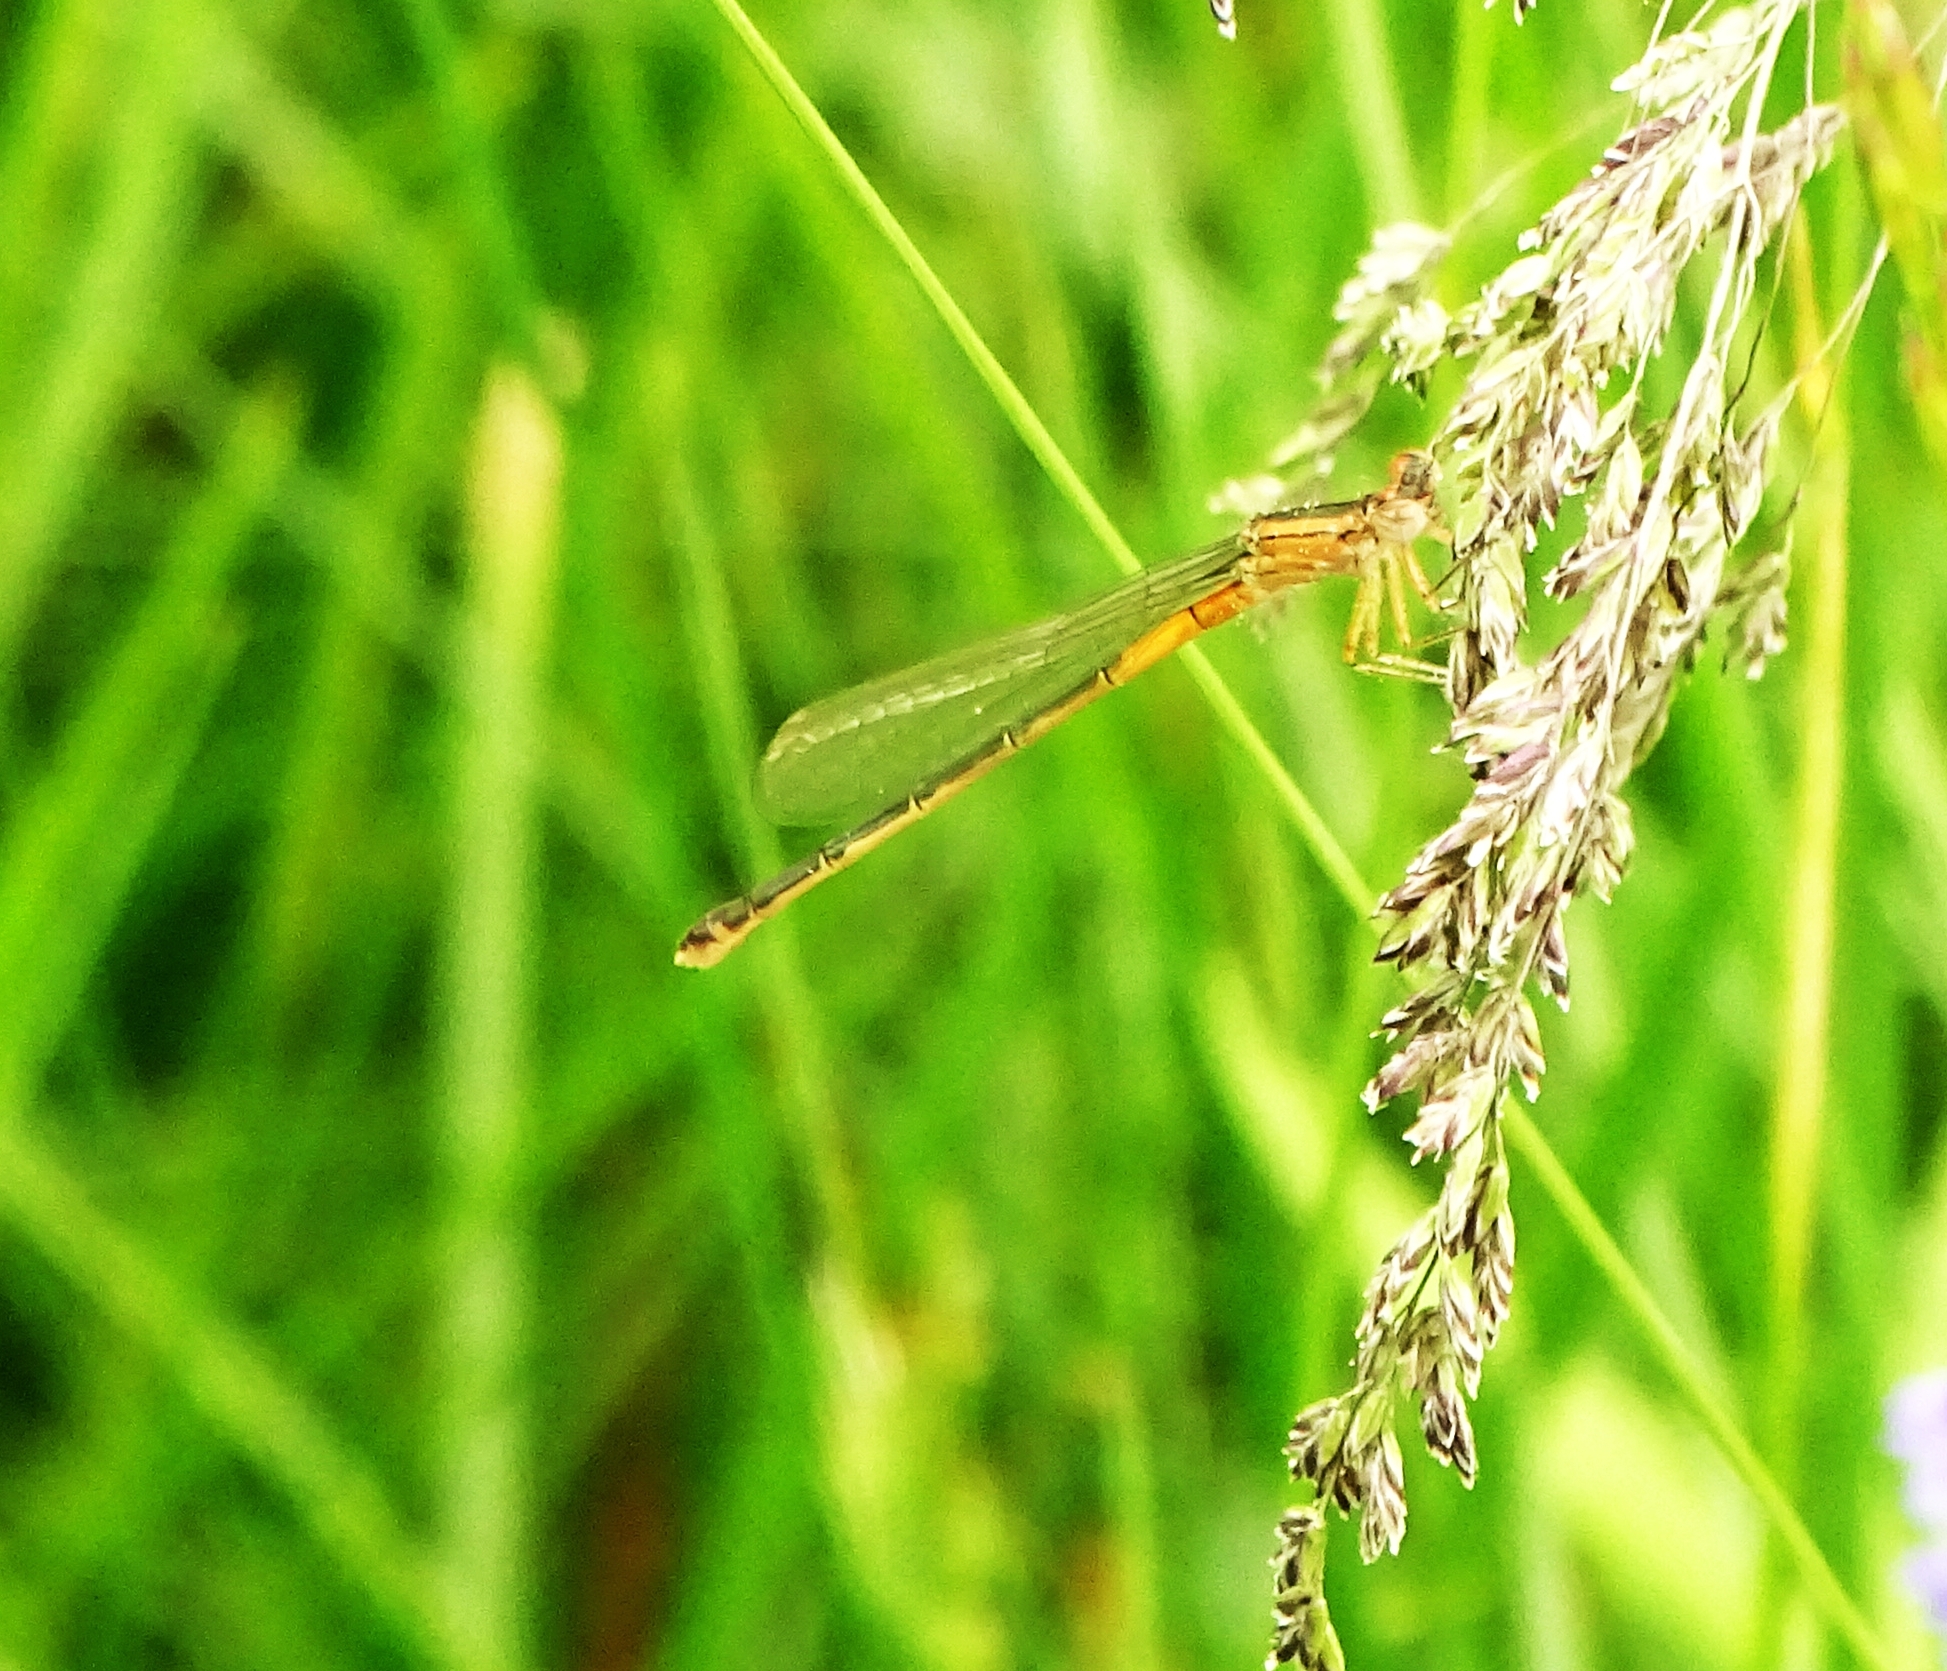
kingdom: Animalia
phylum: Arthropoda
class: Insecta
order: Odonata
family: Coenagrionidae
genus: Ischnura
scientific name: Ischnura verticalis
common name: Eastern forktail
